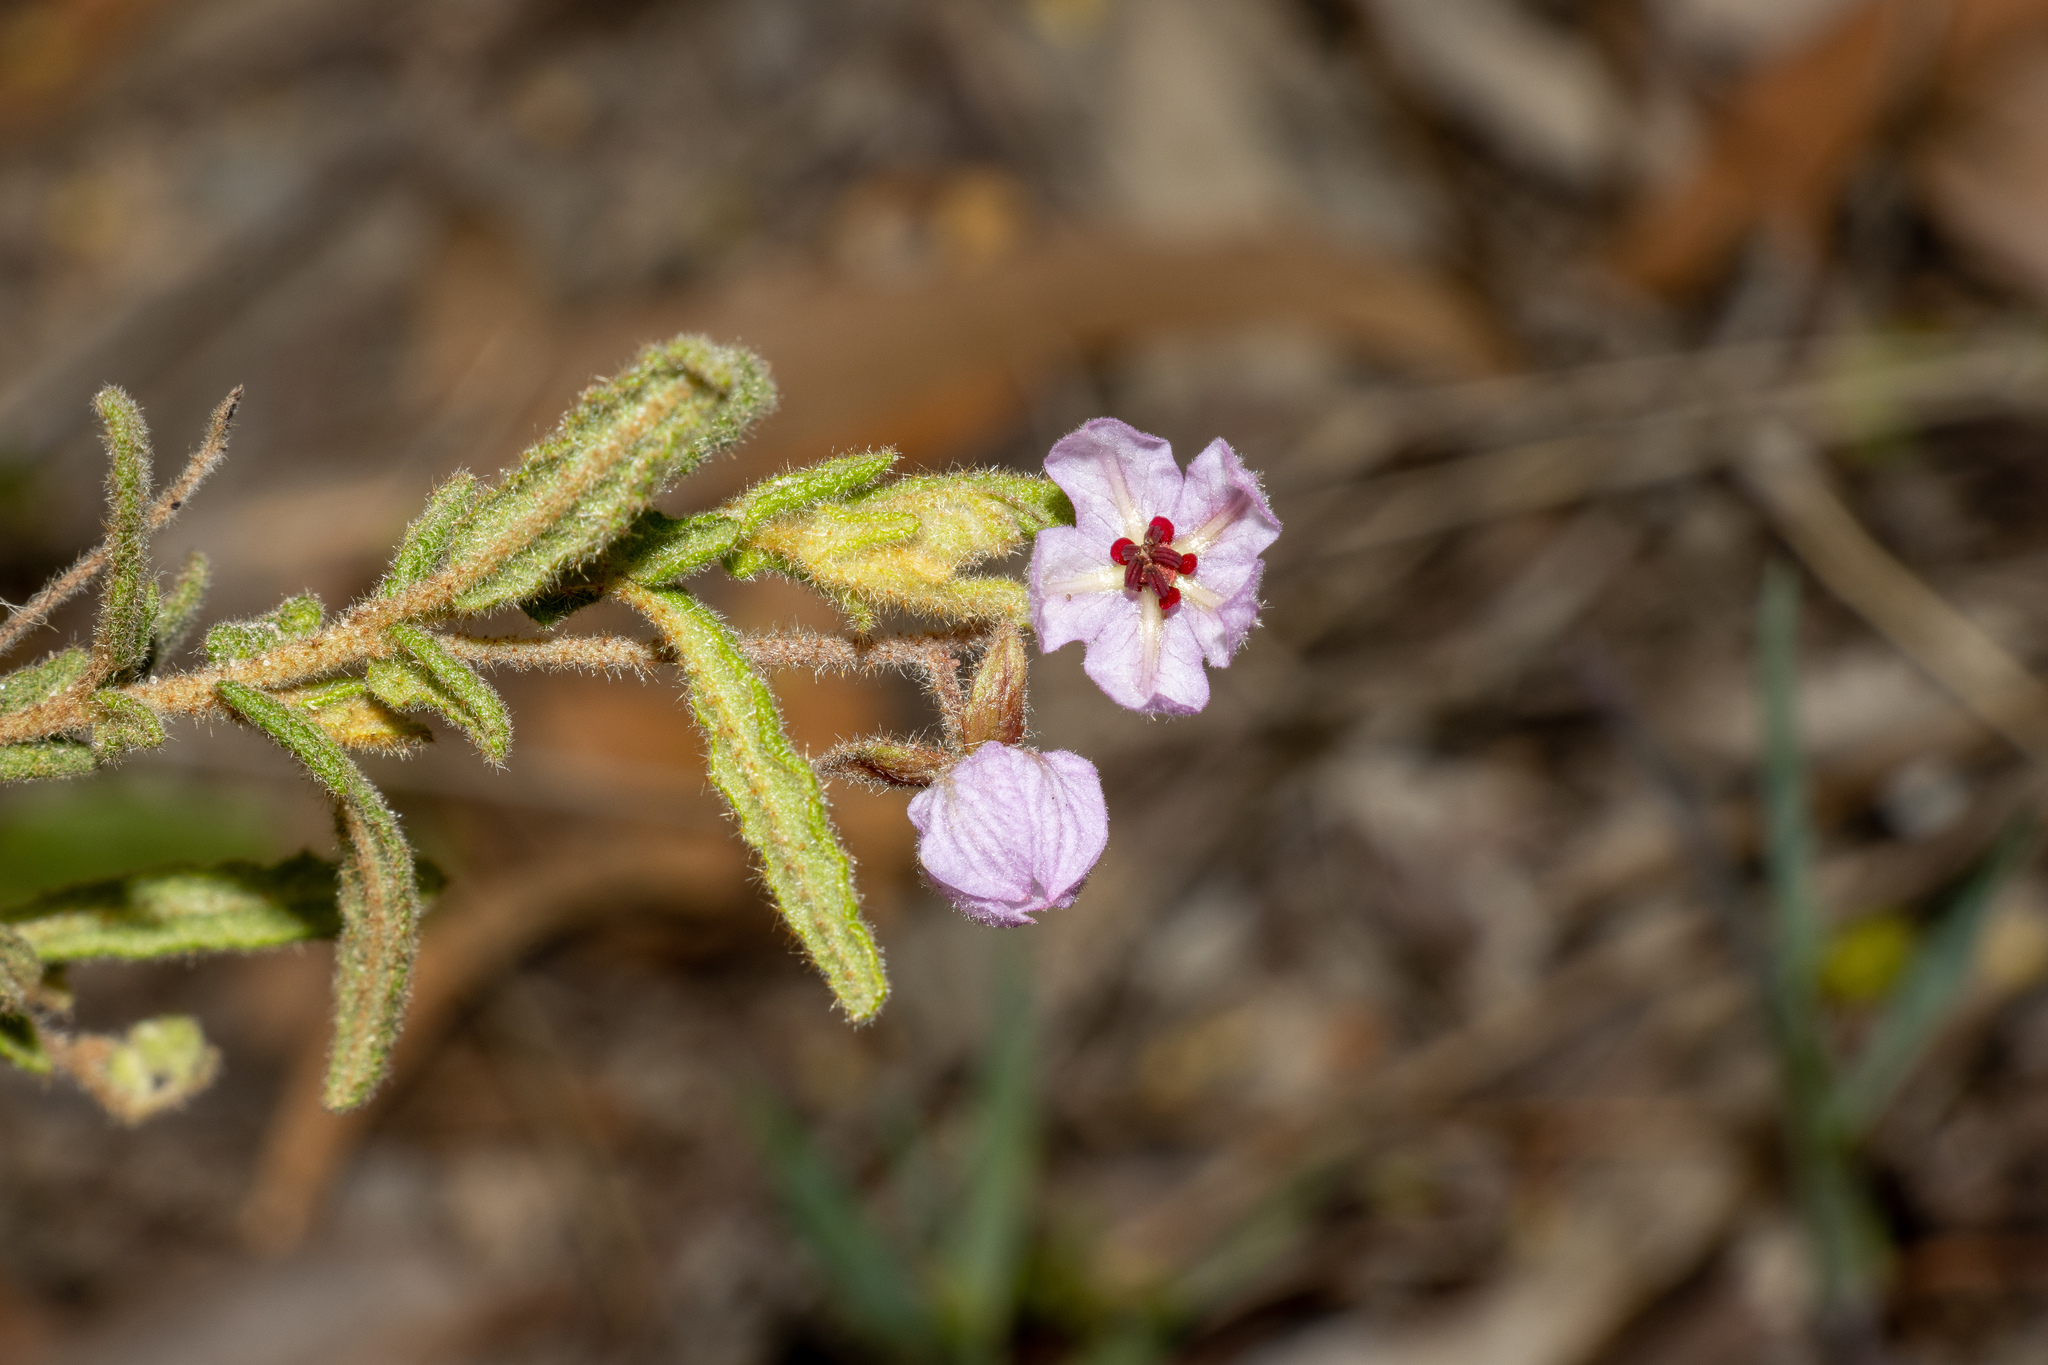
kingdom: Plantae
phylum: Tracheophyta
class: Magnoliopsida
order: Malvales
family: Malvaceae
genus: Thomasia
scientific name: Thomasia petalocalyx
